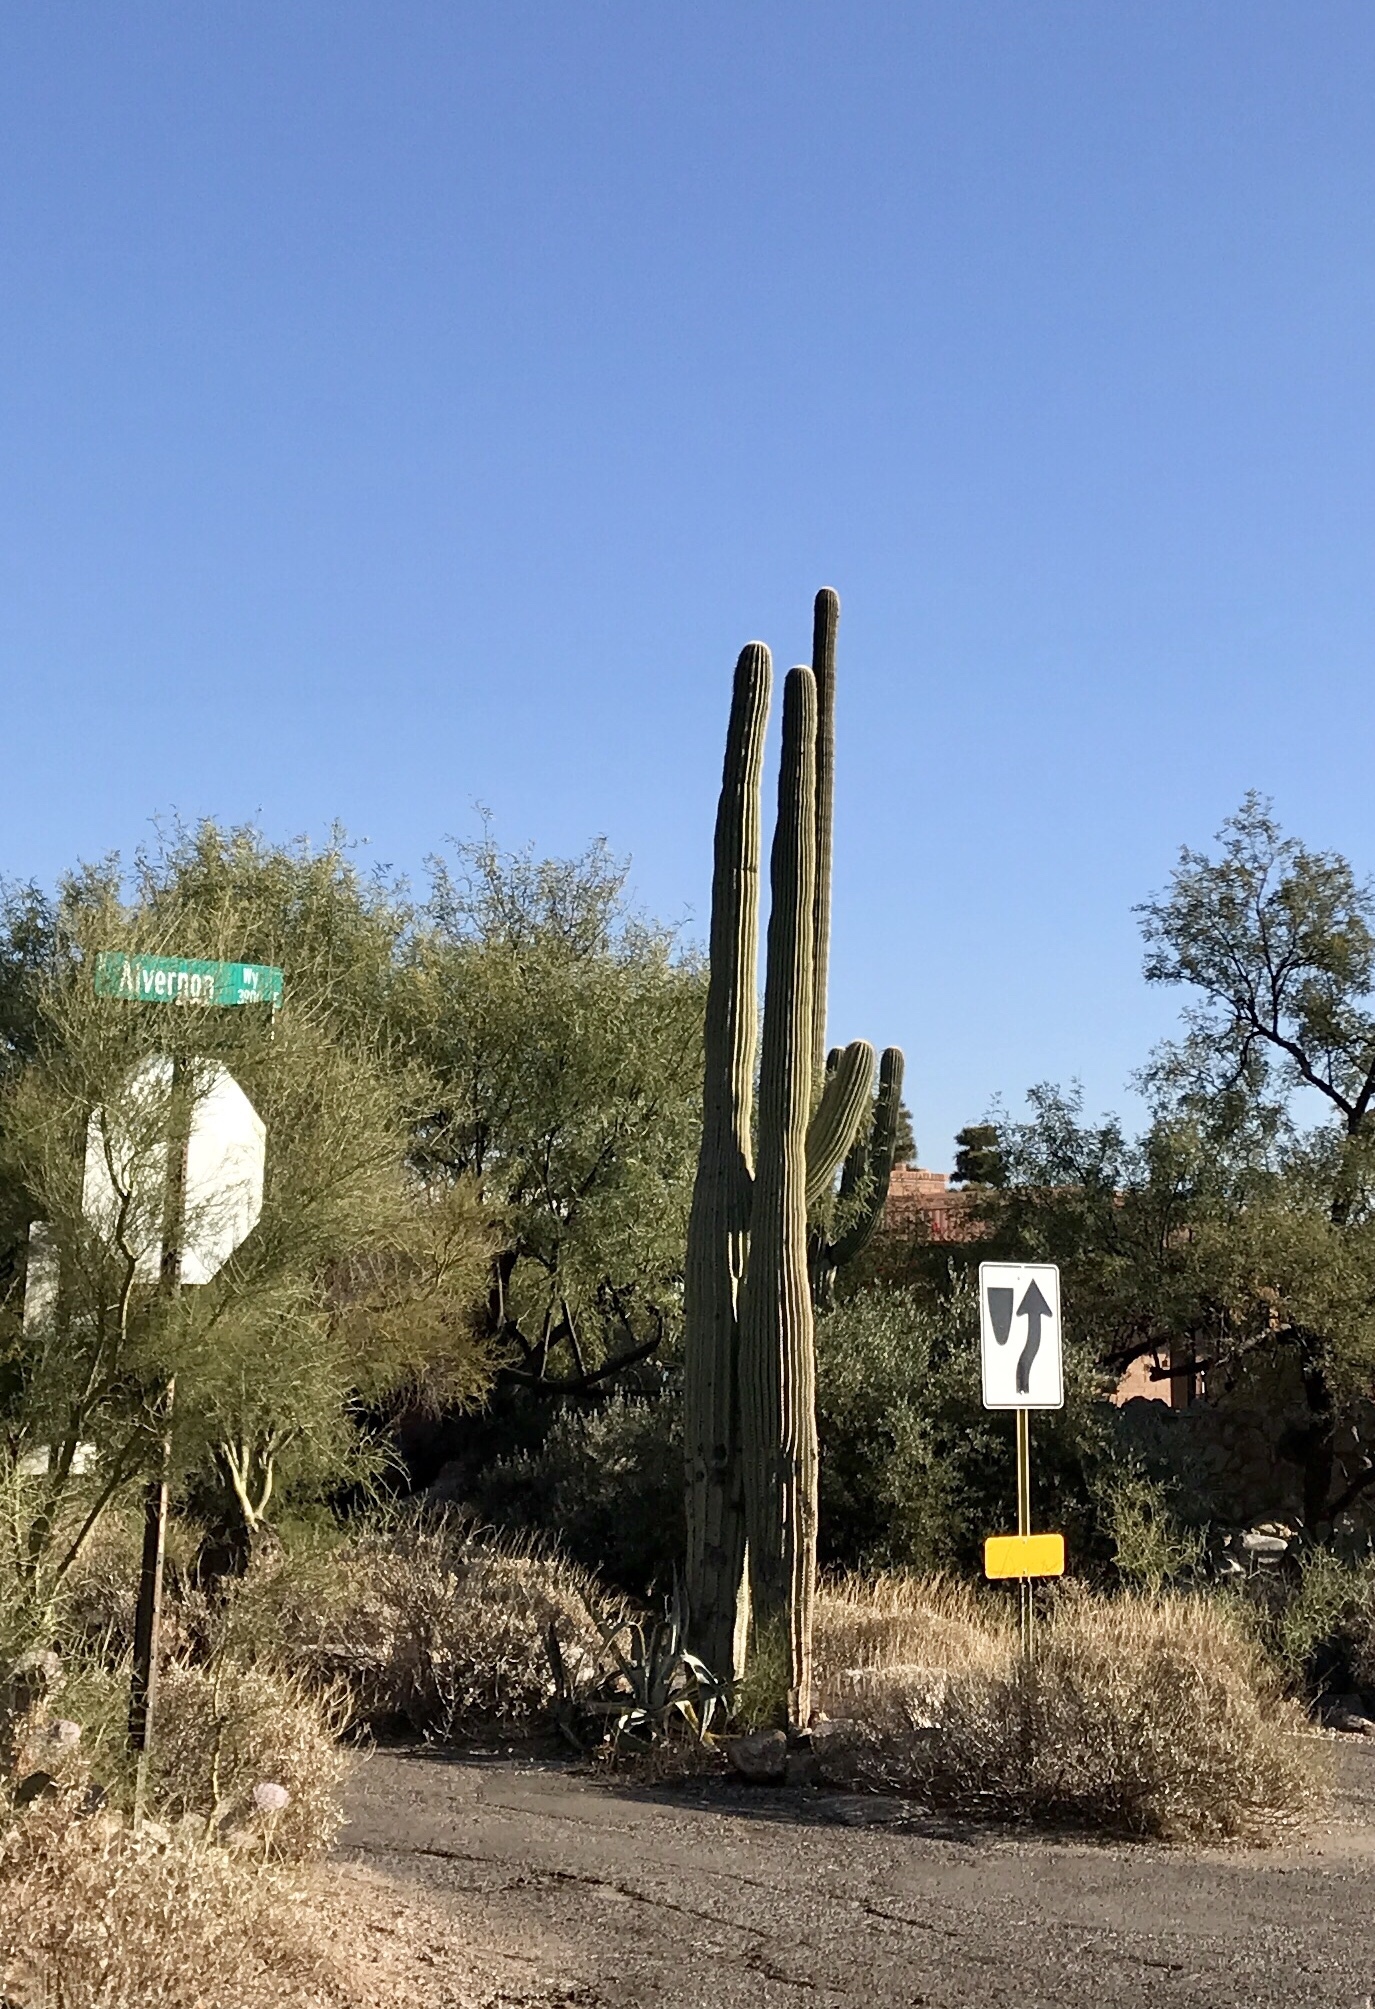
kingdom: Plantae
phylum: Tracheophyta
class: Magnoliopsida
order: Caryophyllales
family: Cactaceae
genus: Carnegiea
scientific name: Carnegiea gigantea
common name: Saguaro
